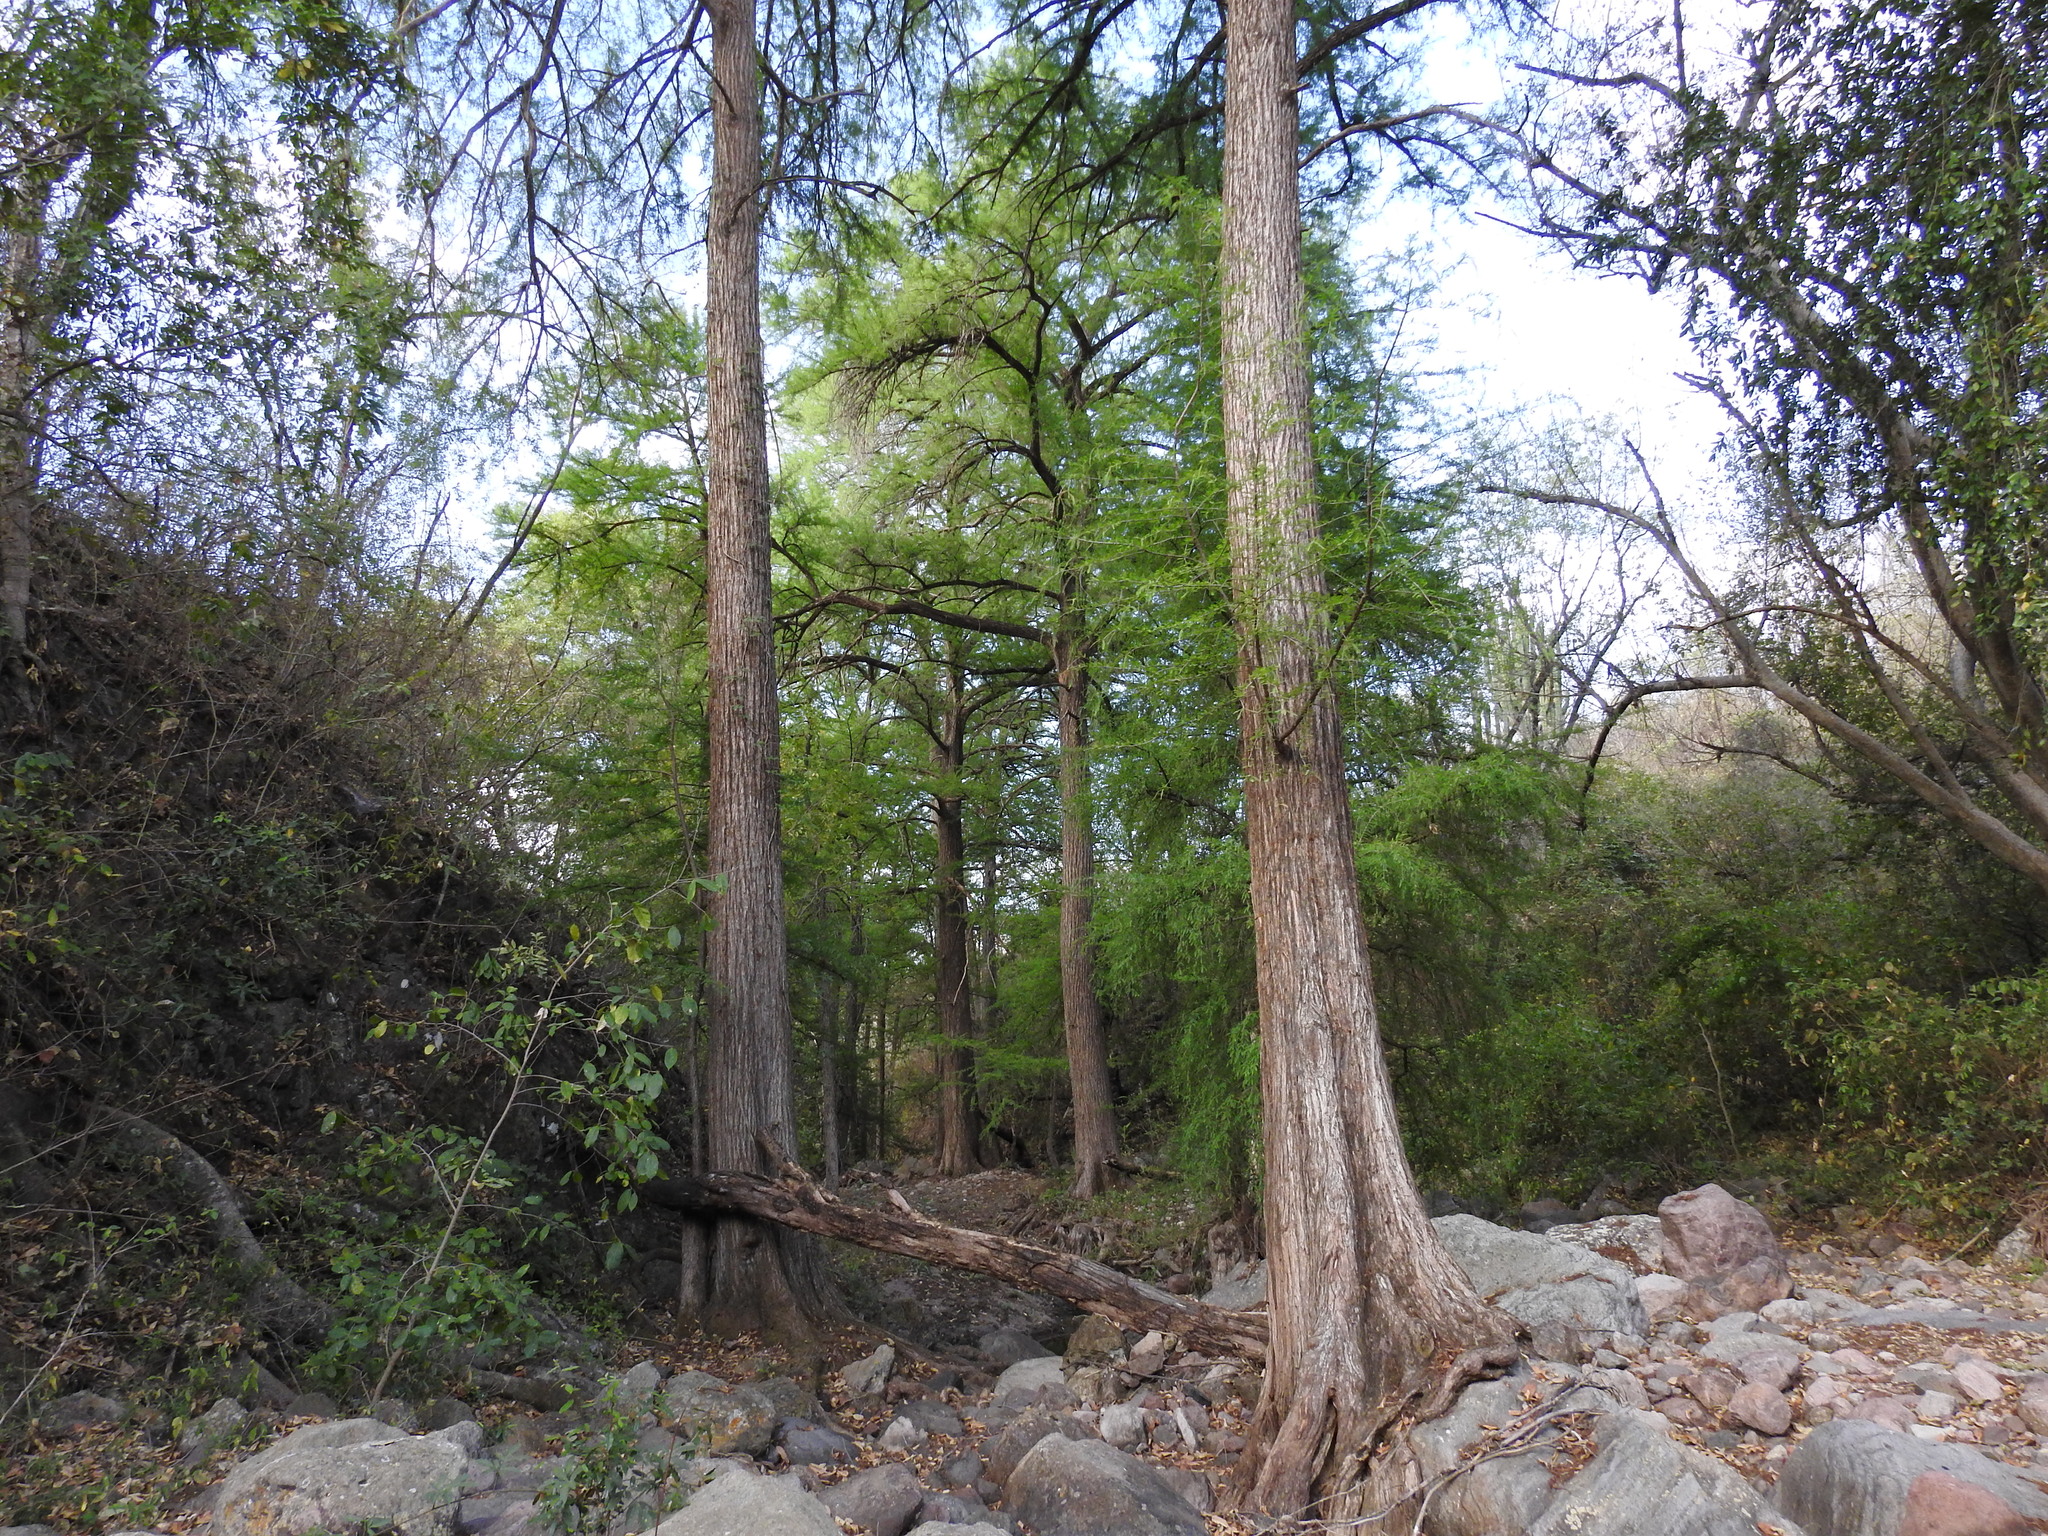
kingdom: Plantae
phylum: Tracheophyta
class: Pinopsida
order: Pinales
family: Cupressaceae
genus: Taxodium
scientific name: Taxodium mucronatum
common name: Montezume bald cypress
